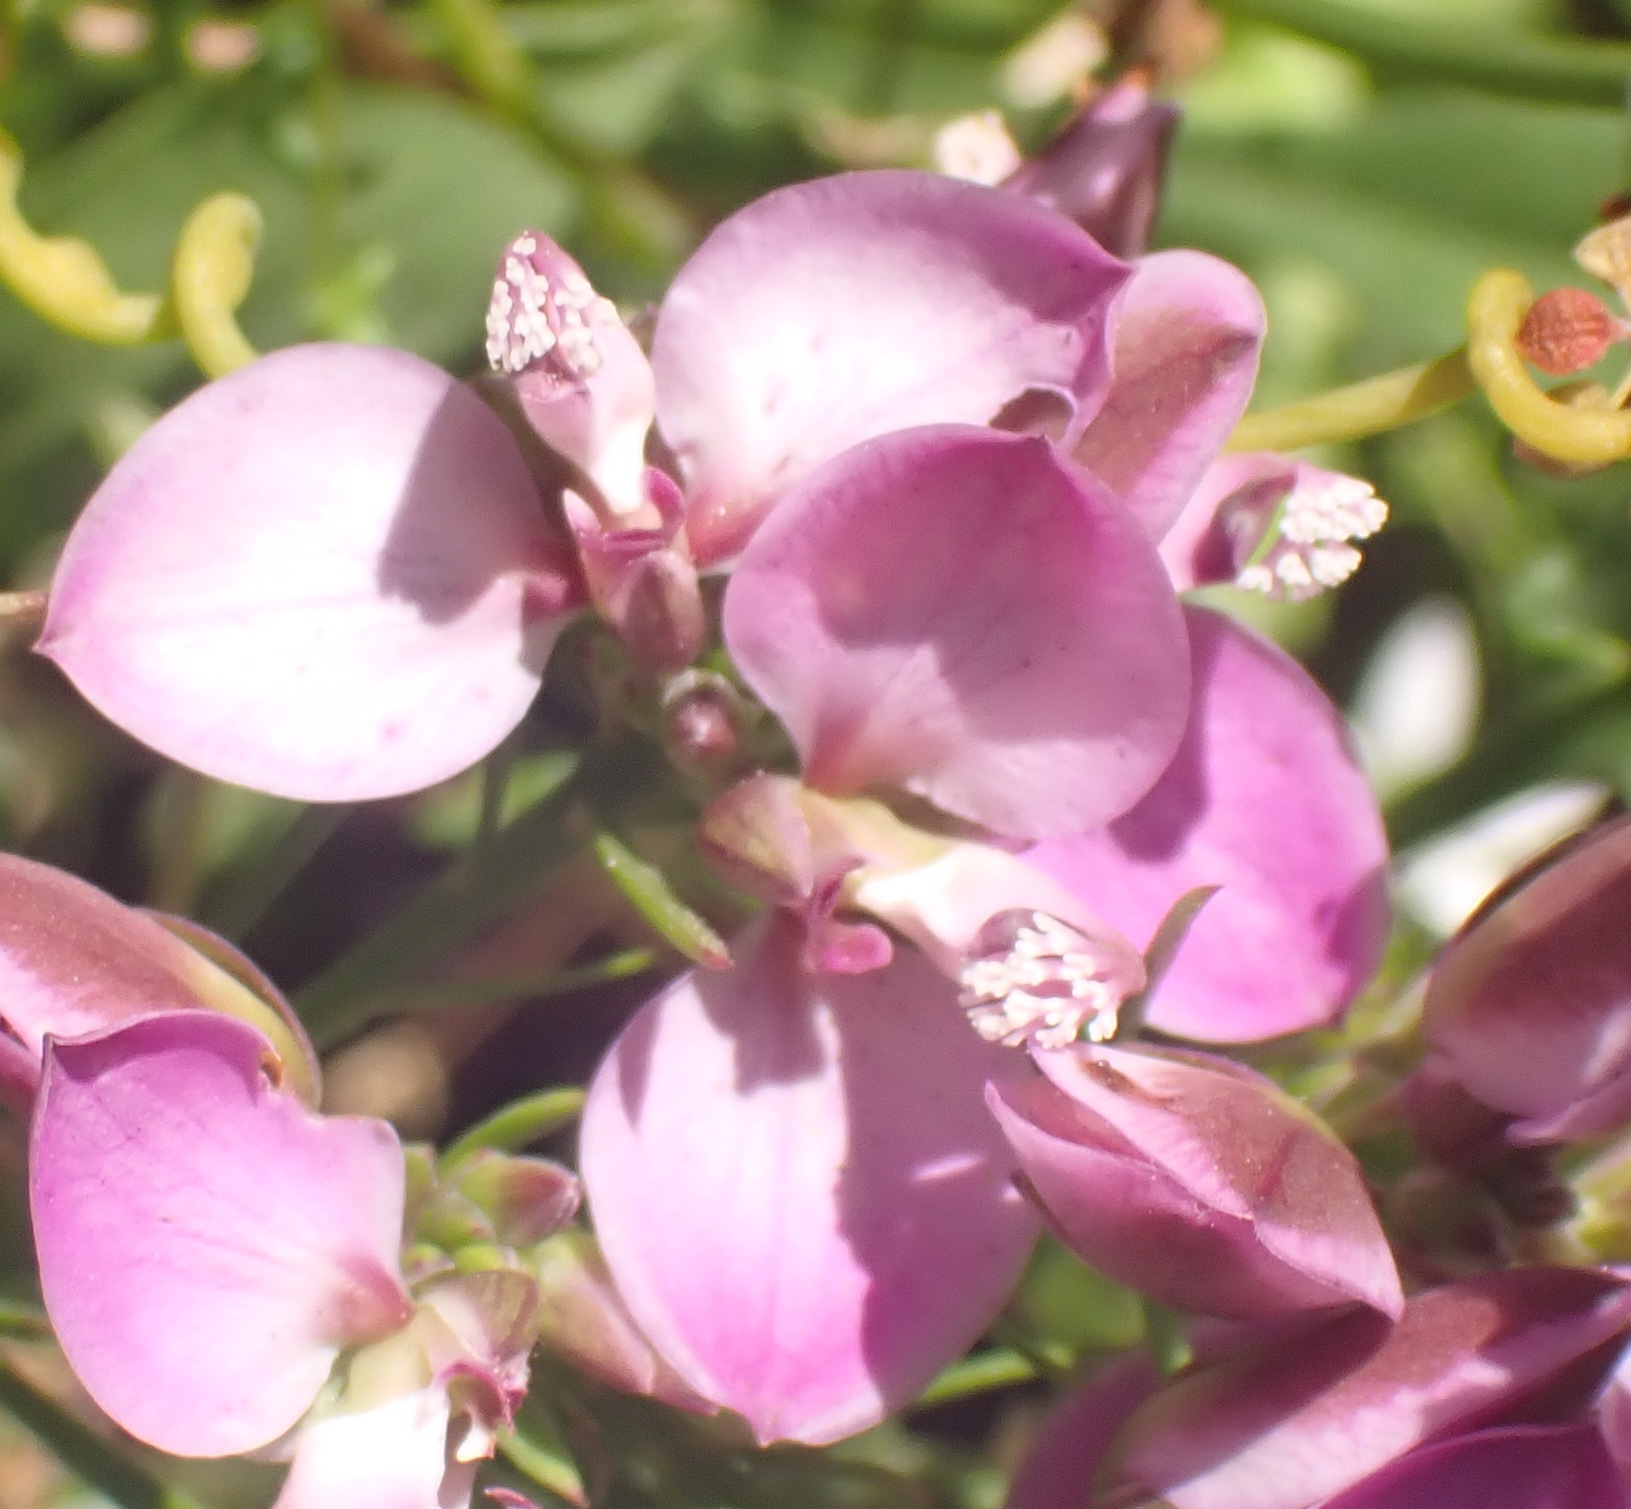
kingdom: Plantae
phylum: Tracheophyta
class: Magnoliopsida
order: Fabales
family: Polygalaceae
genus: Polygala
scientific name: Polygala umbellata
